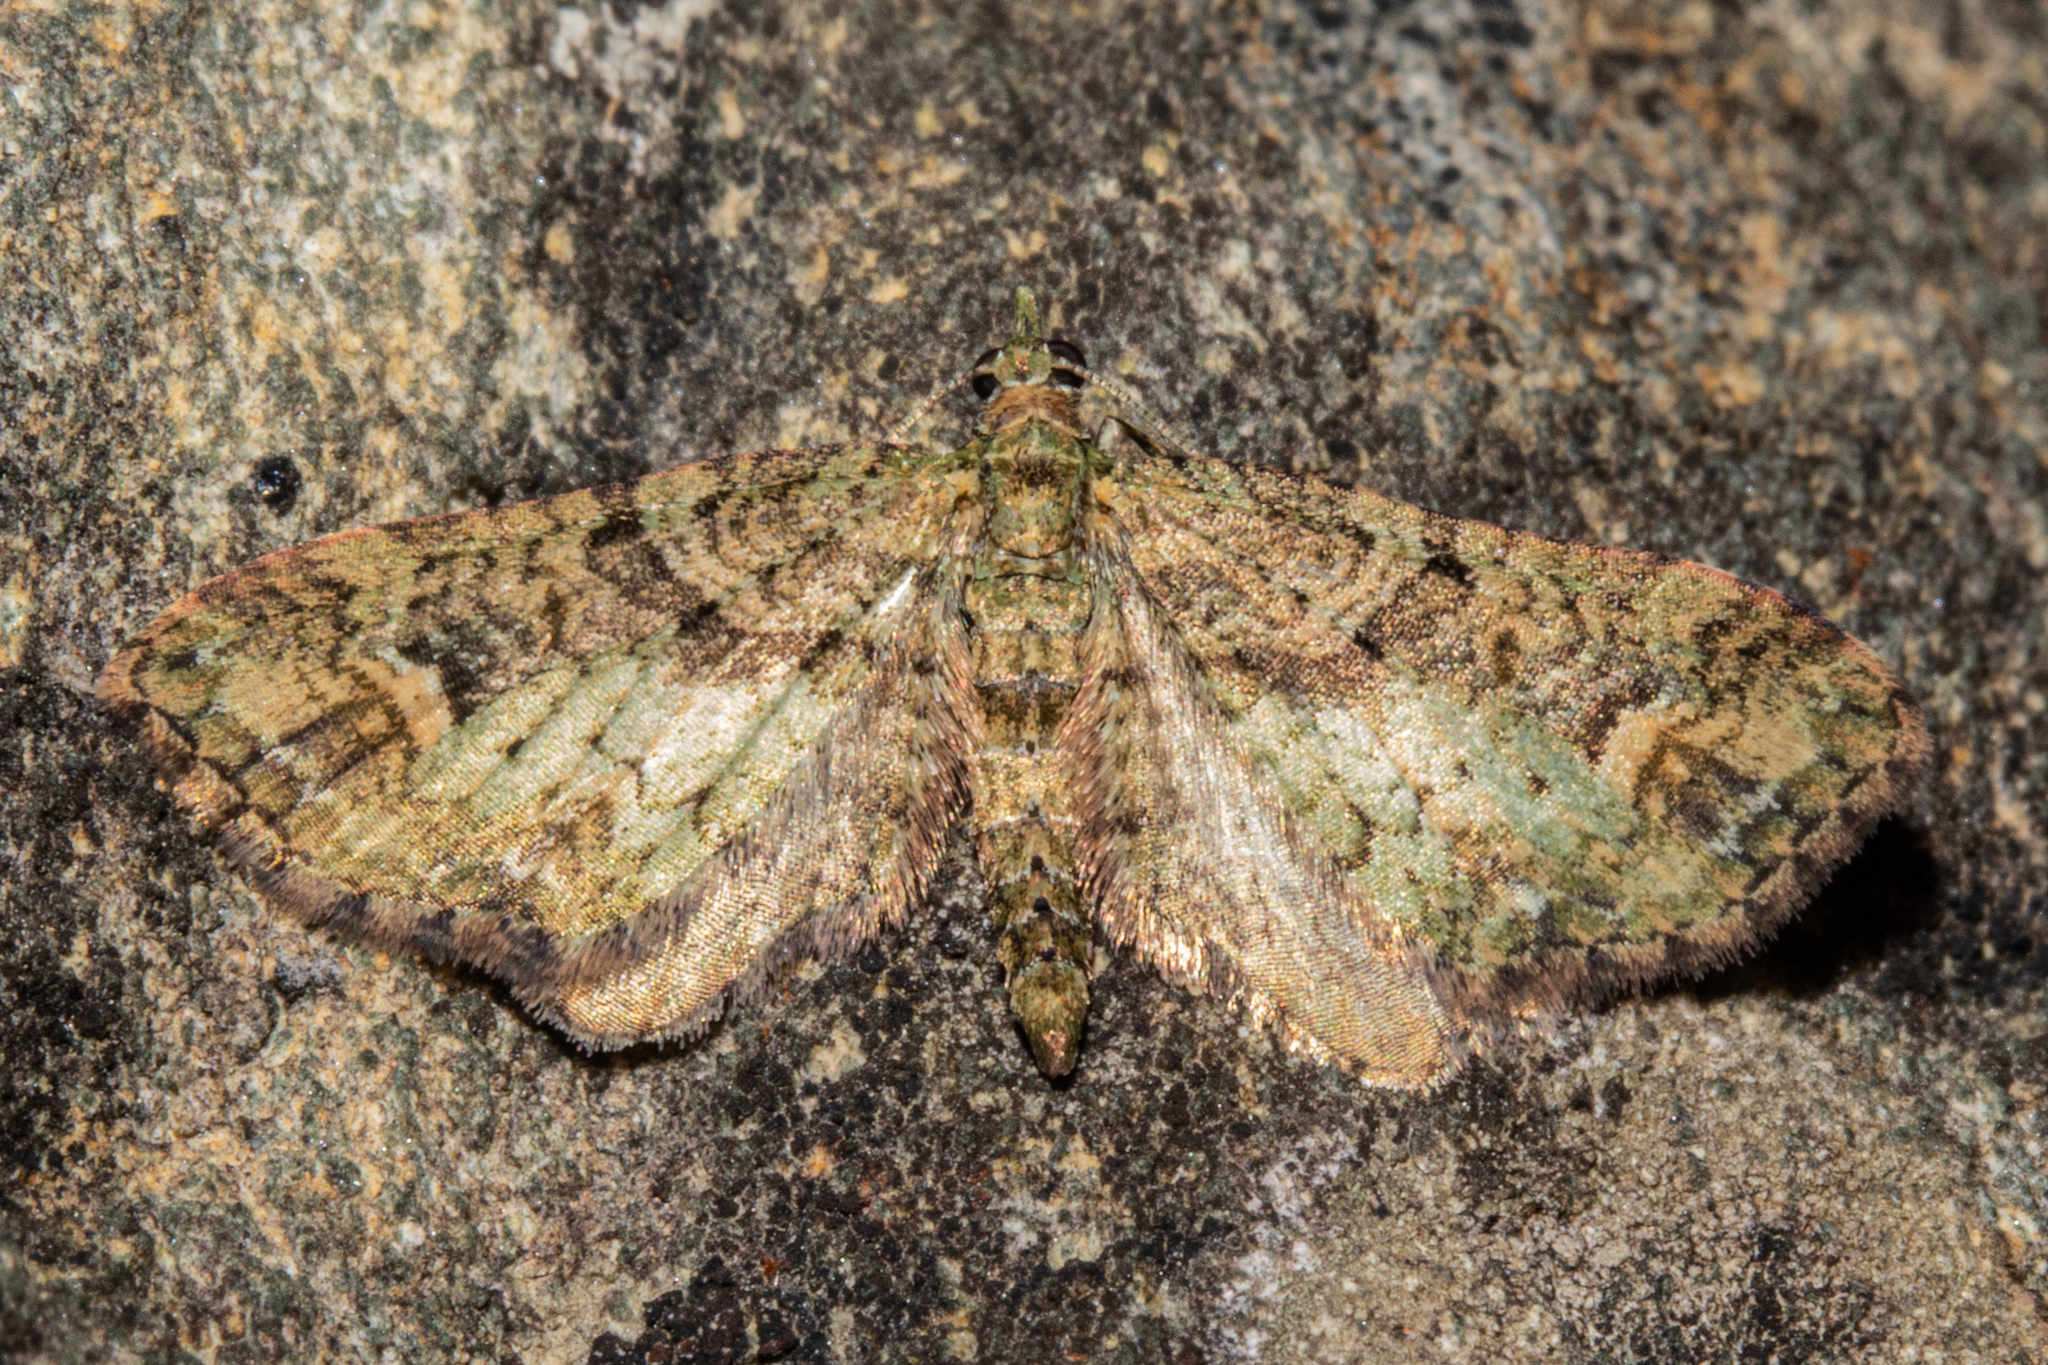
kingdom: Animalia
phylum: Arthropoda
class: Insecta
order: Lepidoptera
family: Geometridae
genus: Idaea
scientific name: Idaea mutanda
